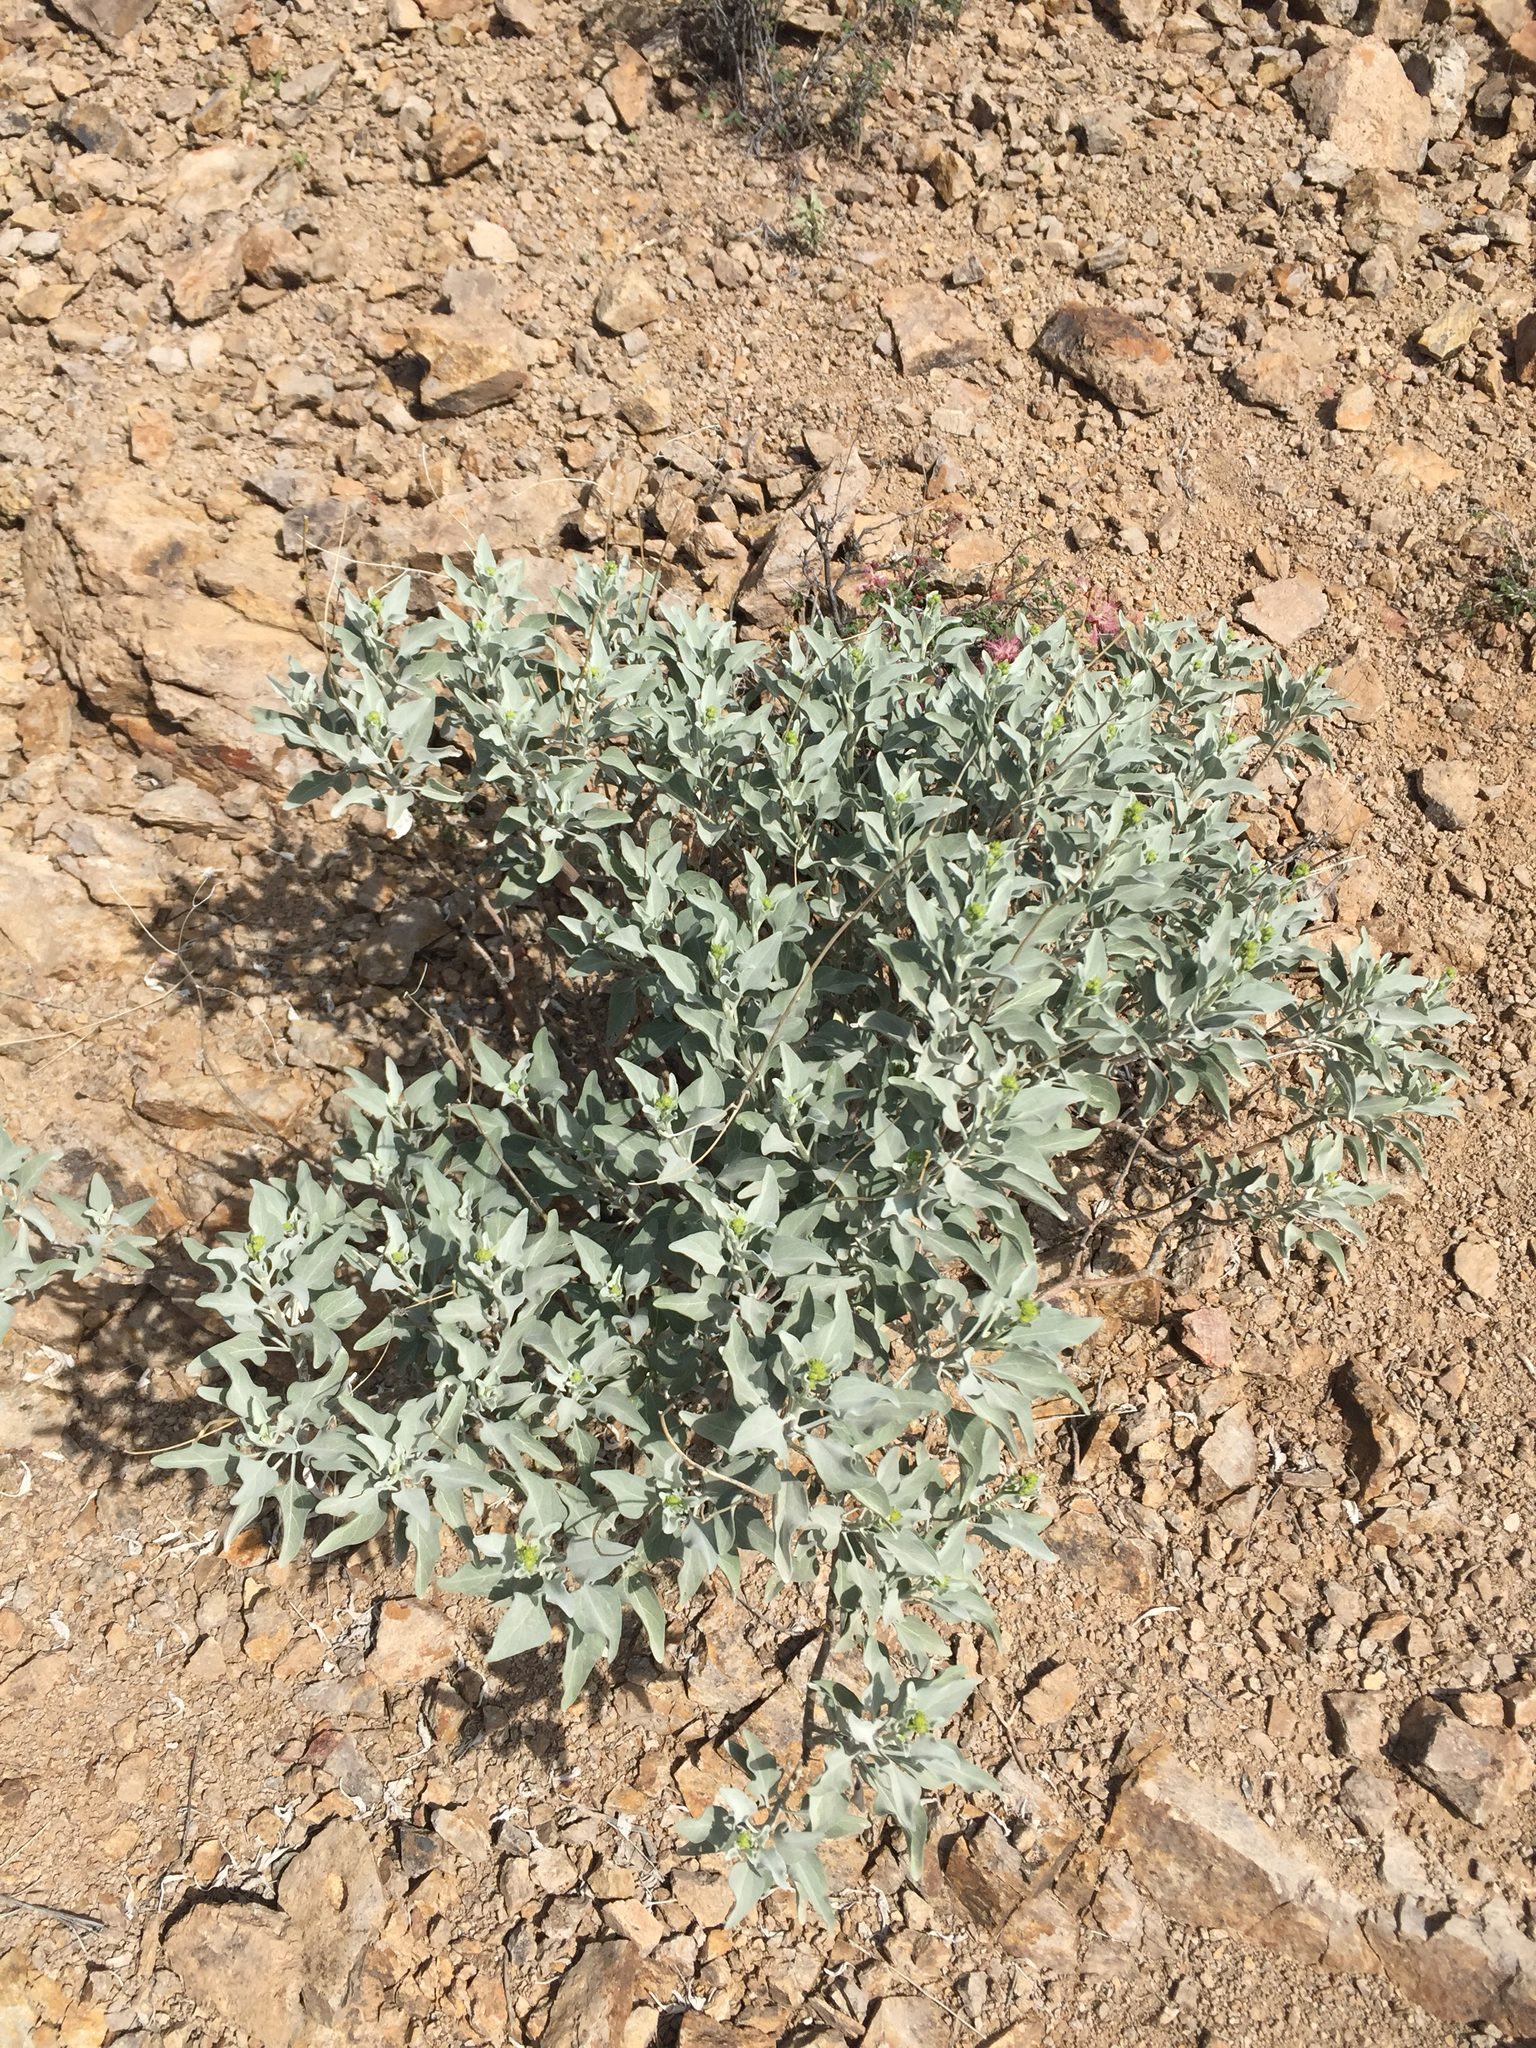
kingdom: Plantae
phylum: Tracheophyta
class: Magnoliopsida
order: Asterales
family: Asteraceae
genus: Encelia
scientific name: Encelia farinosa
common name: Brittlebush
